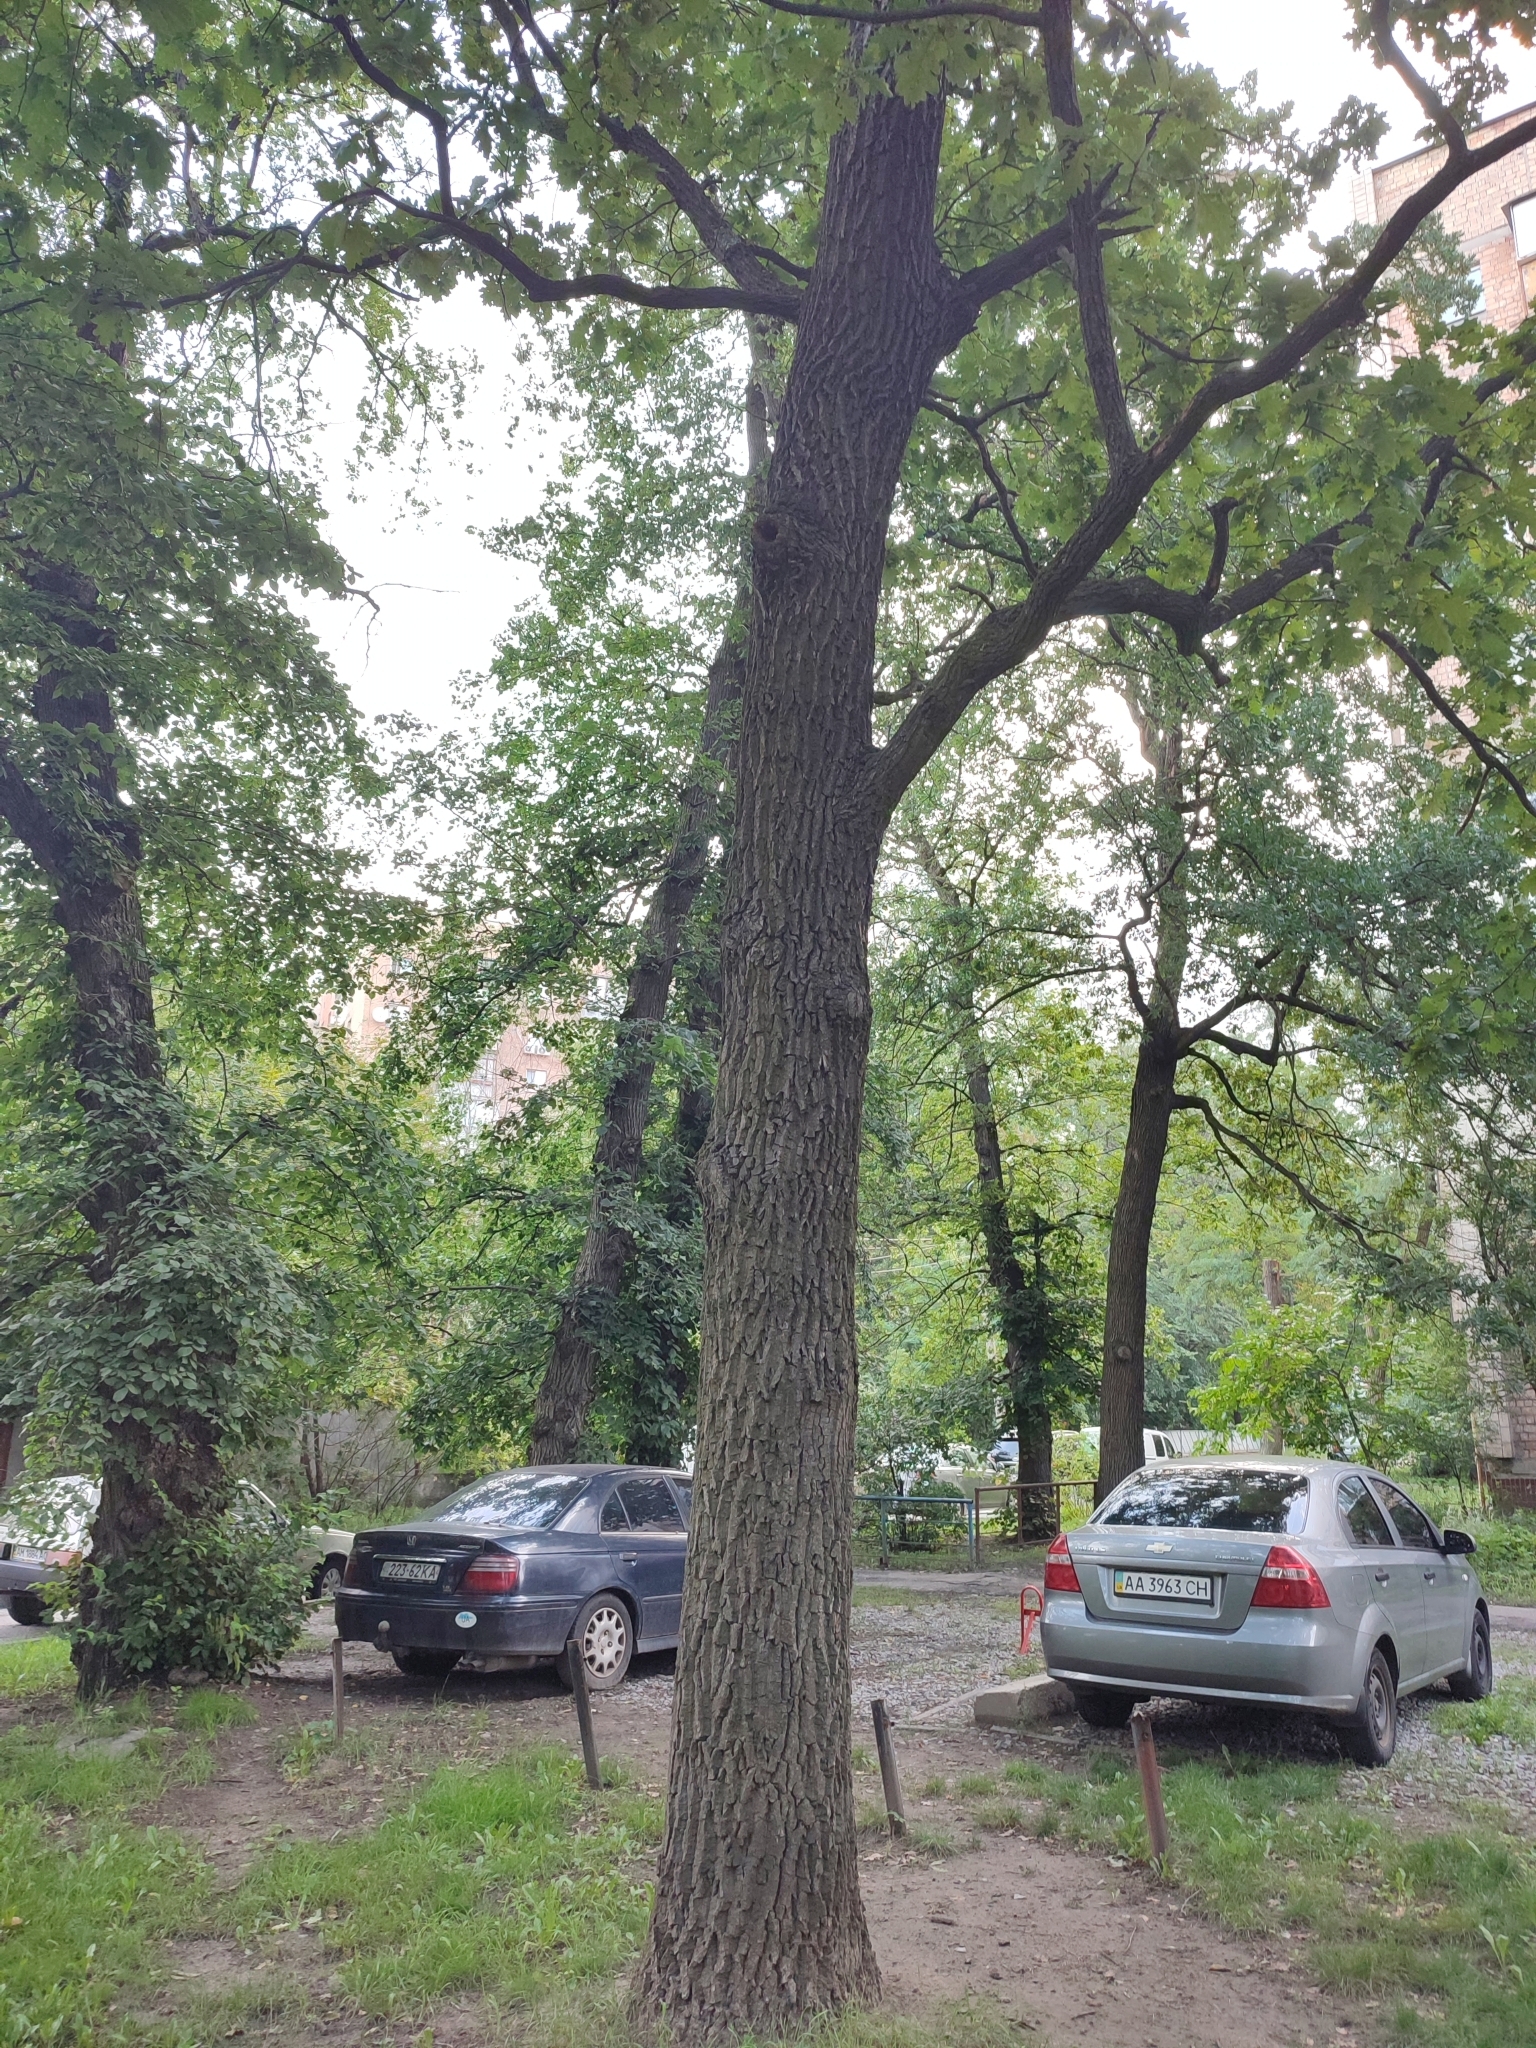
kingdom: Plantae
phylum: Tracheophyta
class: Magnoliopsida
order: Fagales
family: Fagaceae
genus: Quercus
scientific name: Quercus robur
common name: Pedunculate oak
